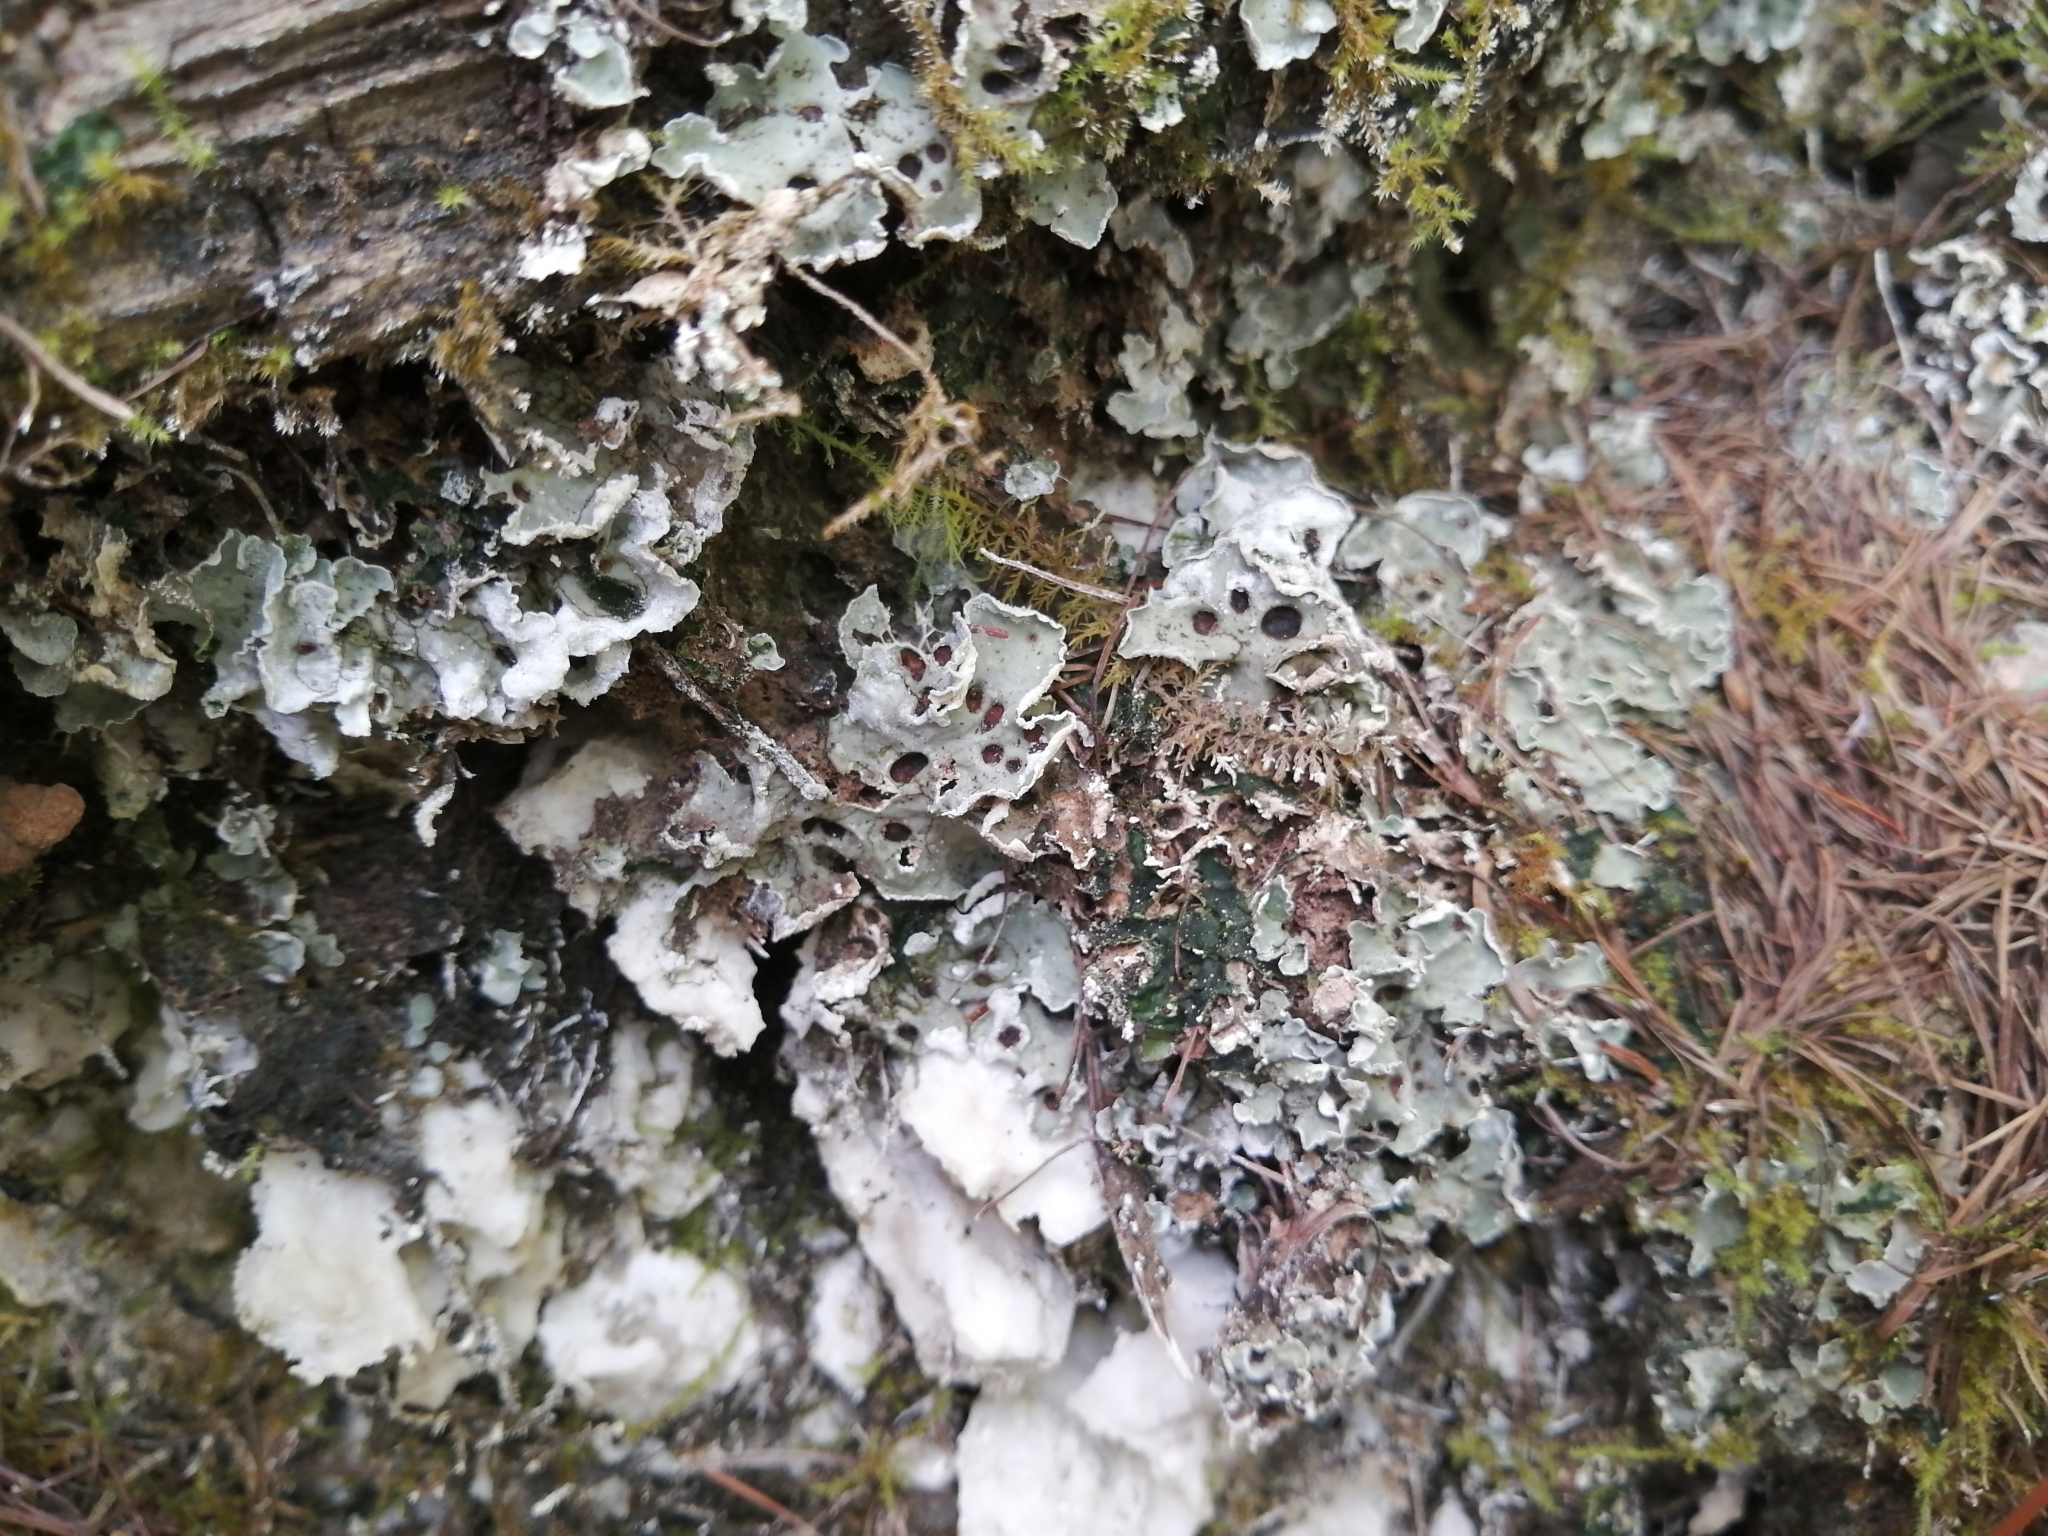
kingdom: Fungi
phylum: Ascomycota
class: Lecanoromycetes
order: Peltigerales
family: Peltigeraceae
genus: Solorina
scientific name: Solorina saccata
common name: Common chocolate chip lichen
